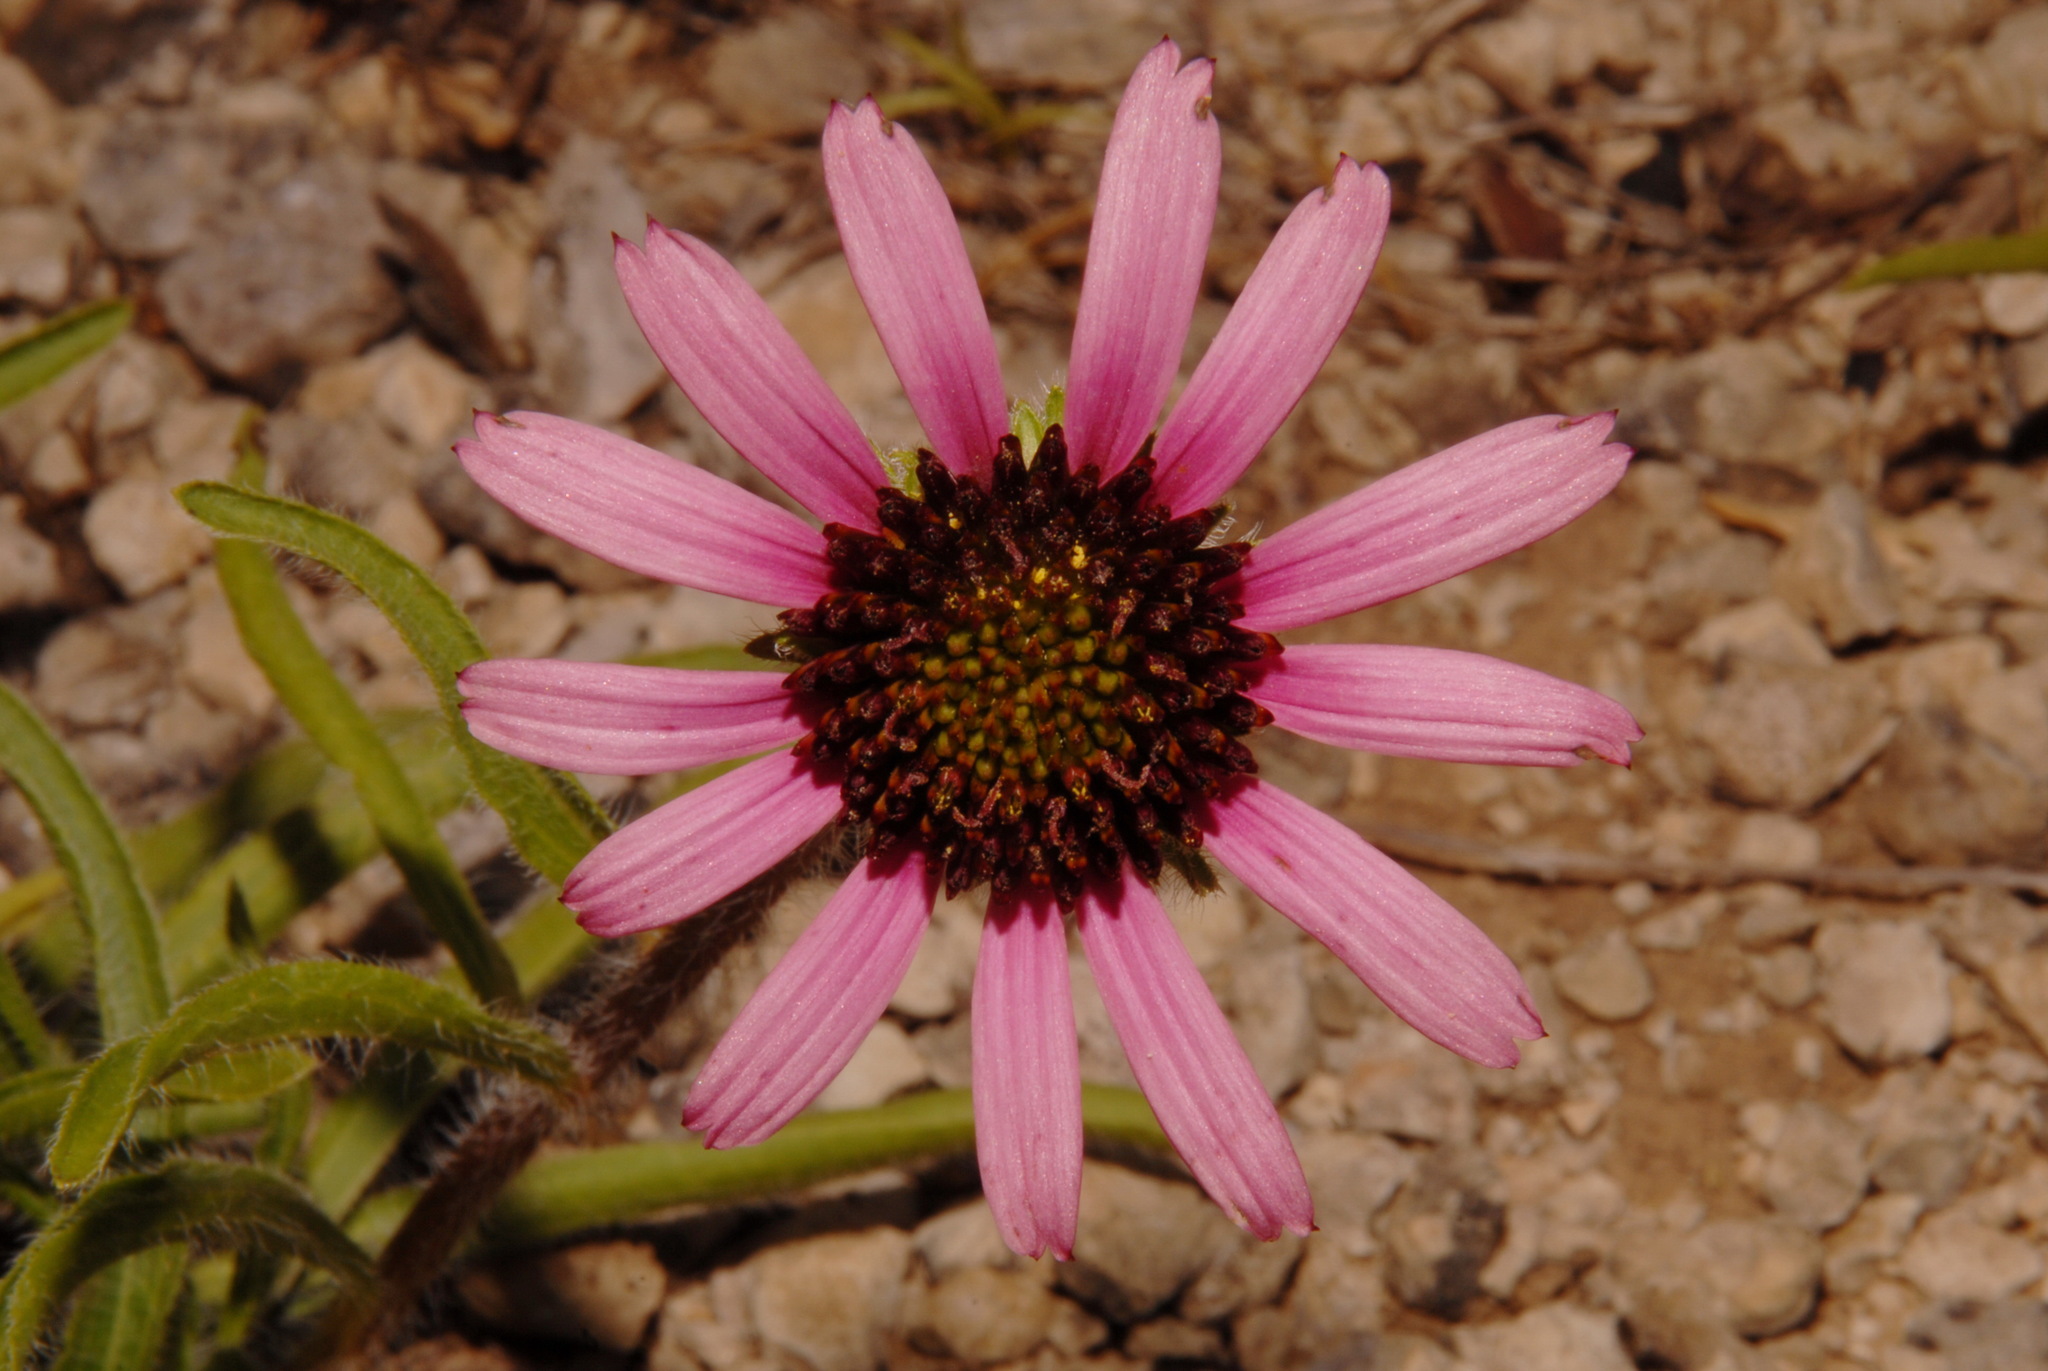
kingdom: Plantae
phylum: Tracheophyta
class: Magnoliopsida
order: Asterales
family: Asteraceae
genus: Echinacea
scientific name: Echinacea tennesseensis
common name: Tennessee purple-coneflower
